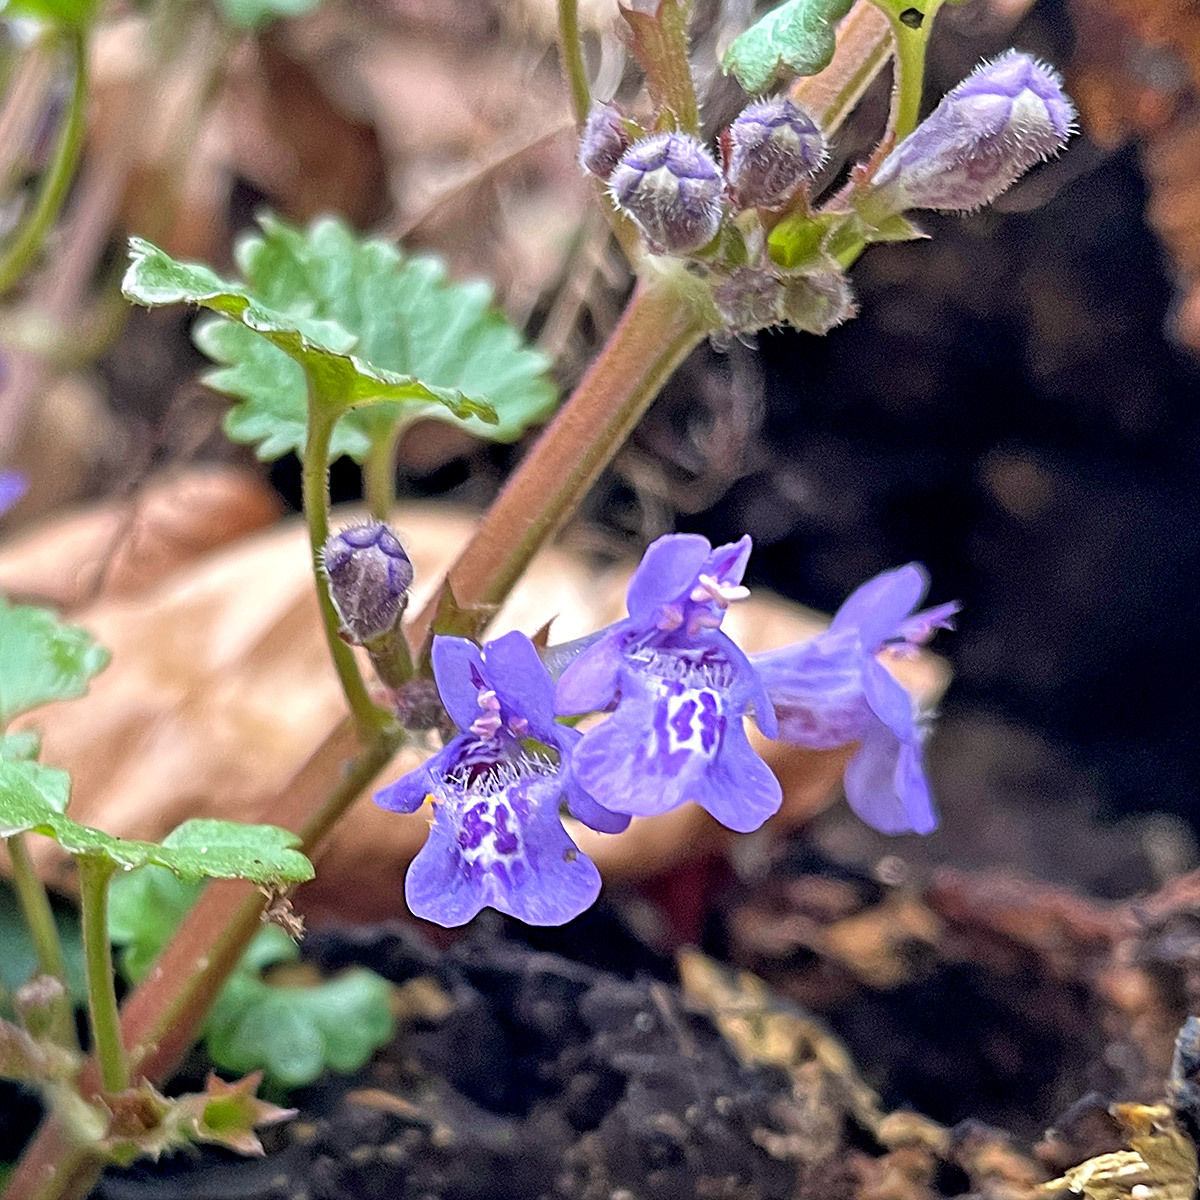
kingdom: Plantae
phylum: Tracheophyta
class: Magnoliopsida
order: Lamiales
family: Lamiaceae
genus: Glechoma
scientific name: Glechoma hederacea
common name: Ground ivy
